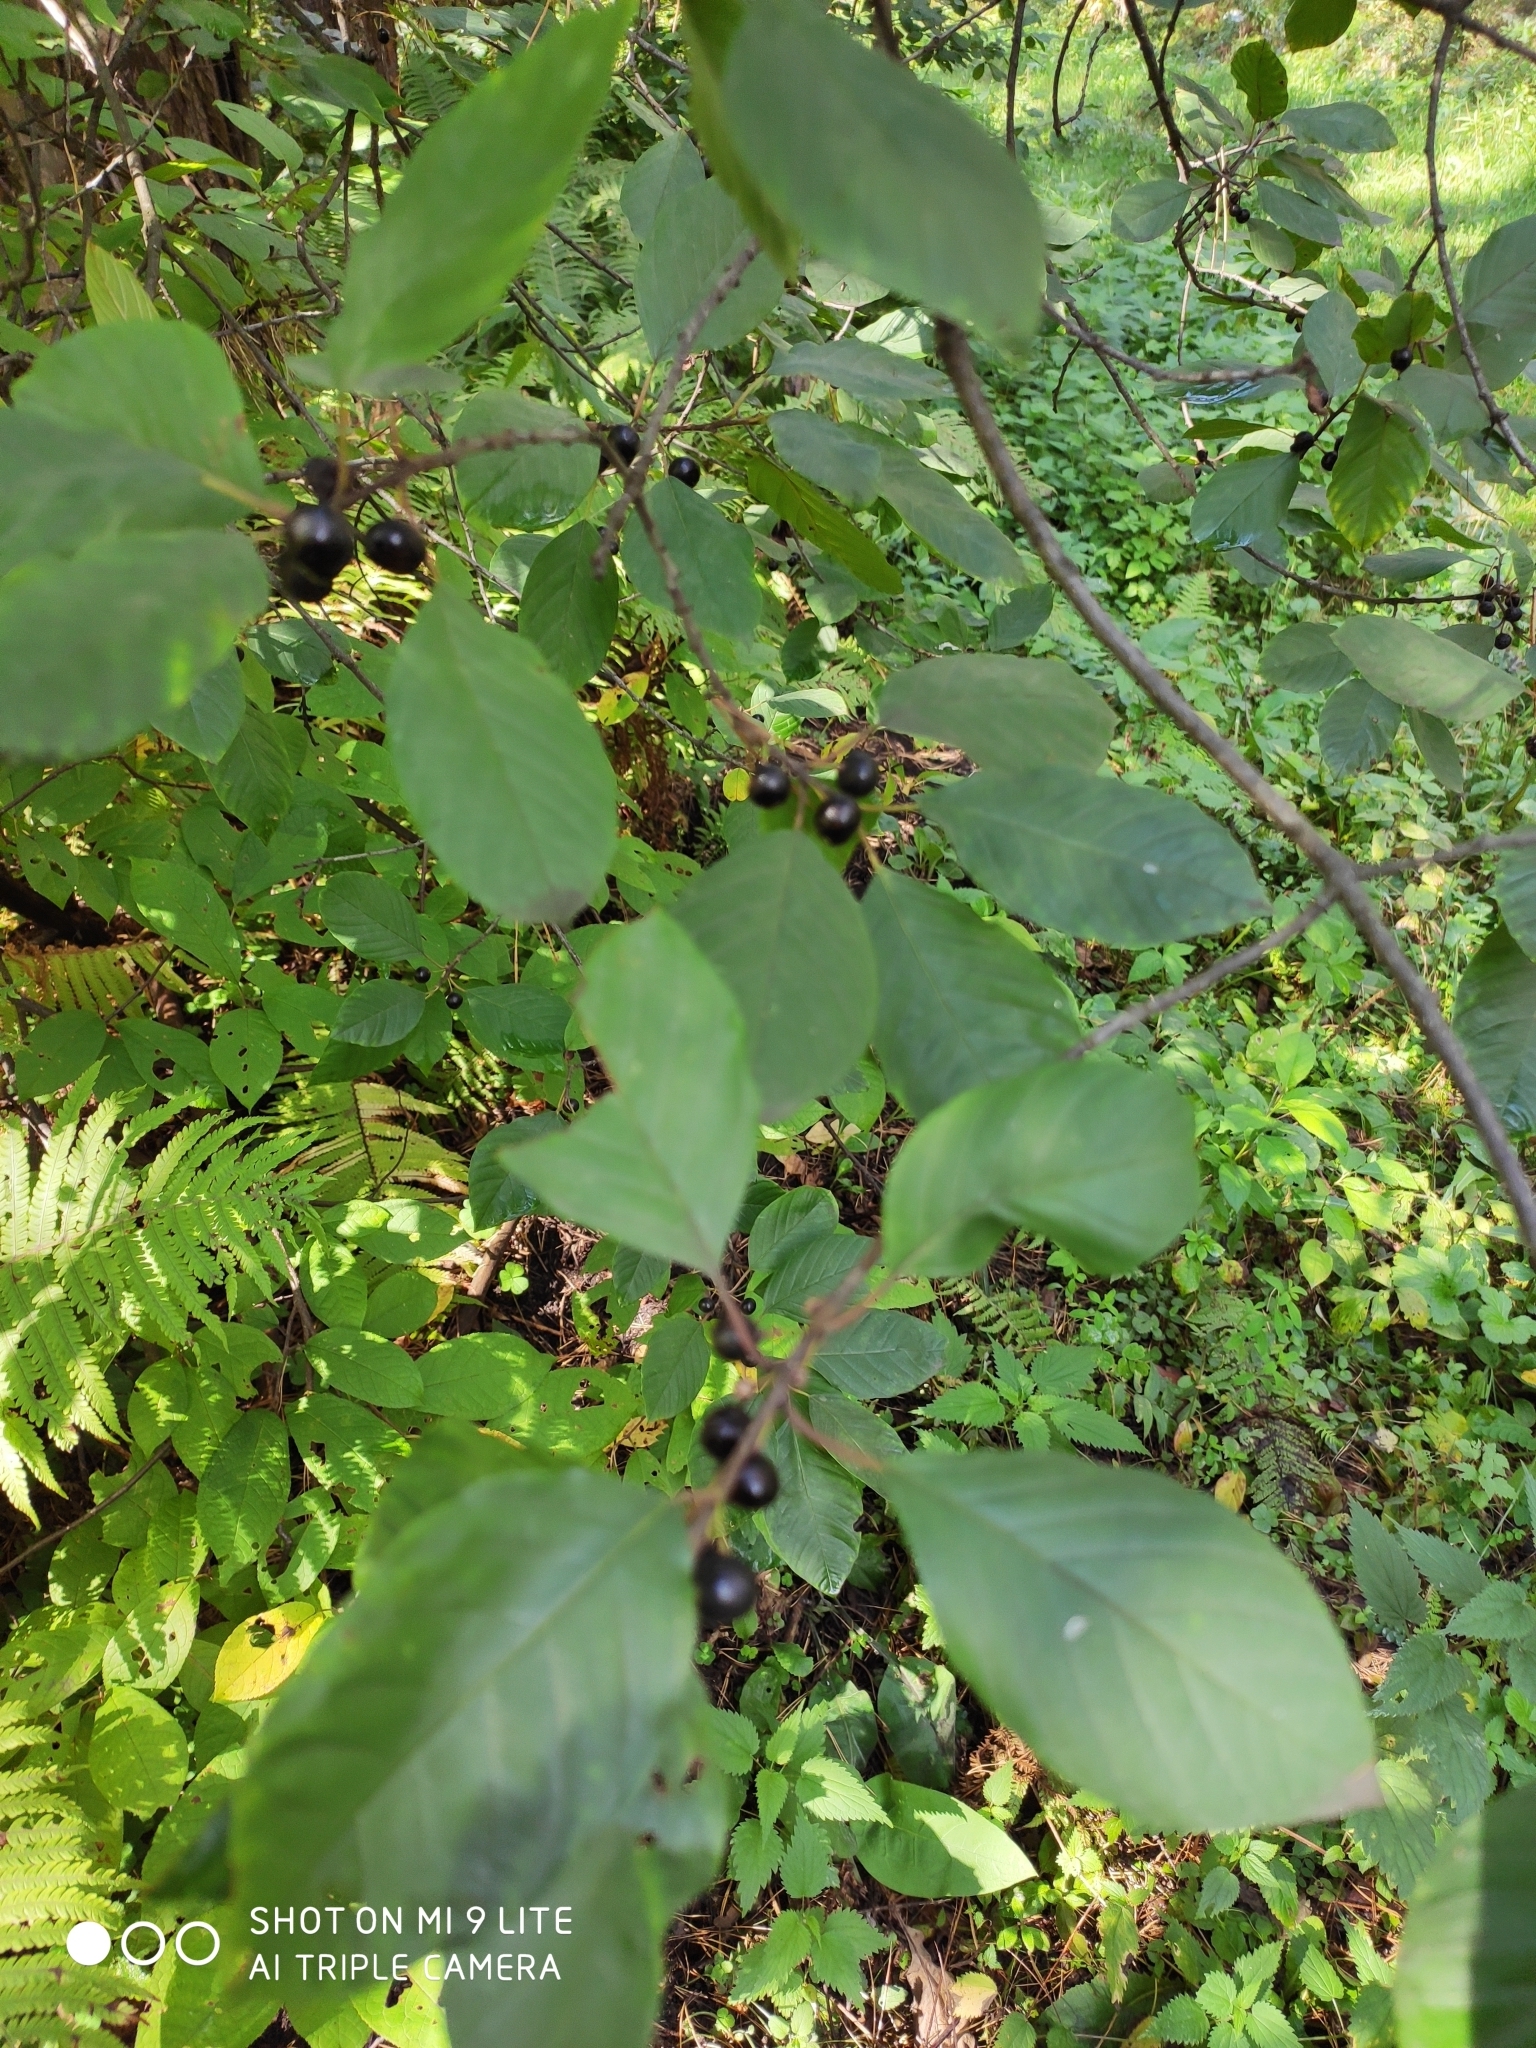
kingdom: Plantae
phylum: Tracheophyta
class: Magnoliopsida
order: Rosales
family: Rhamnaceae
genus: Frangula
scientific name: Frangula alnus
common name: Alder buckthorn
